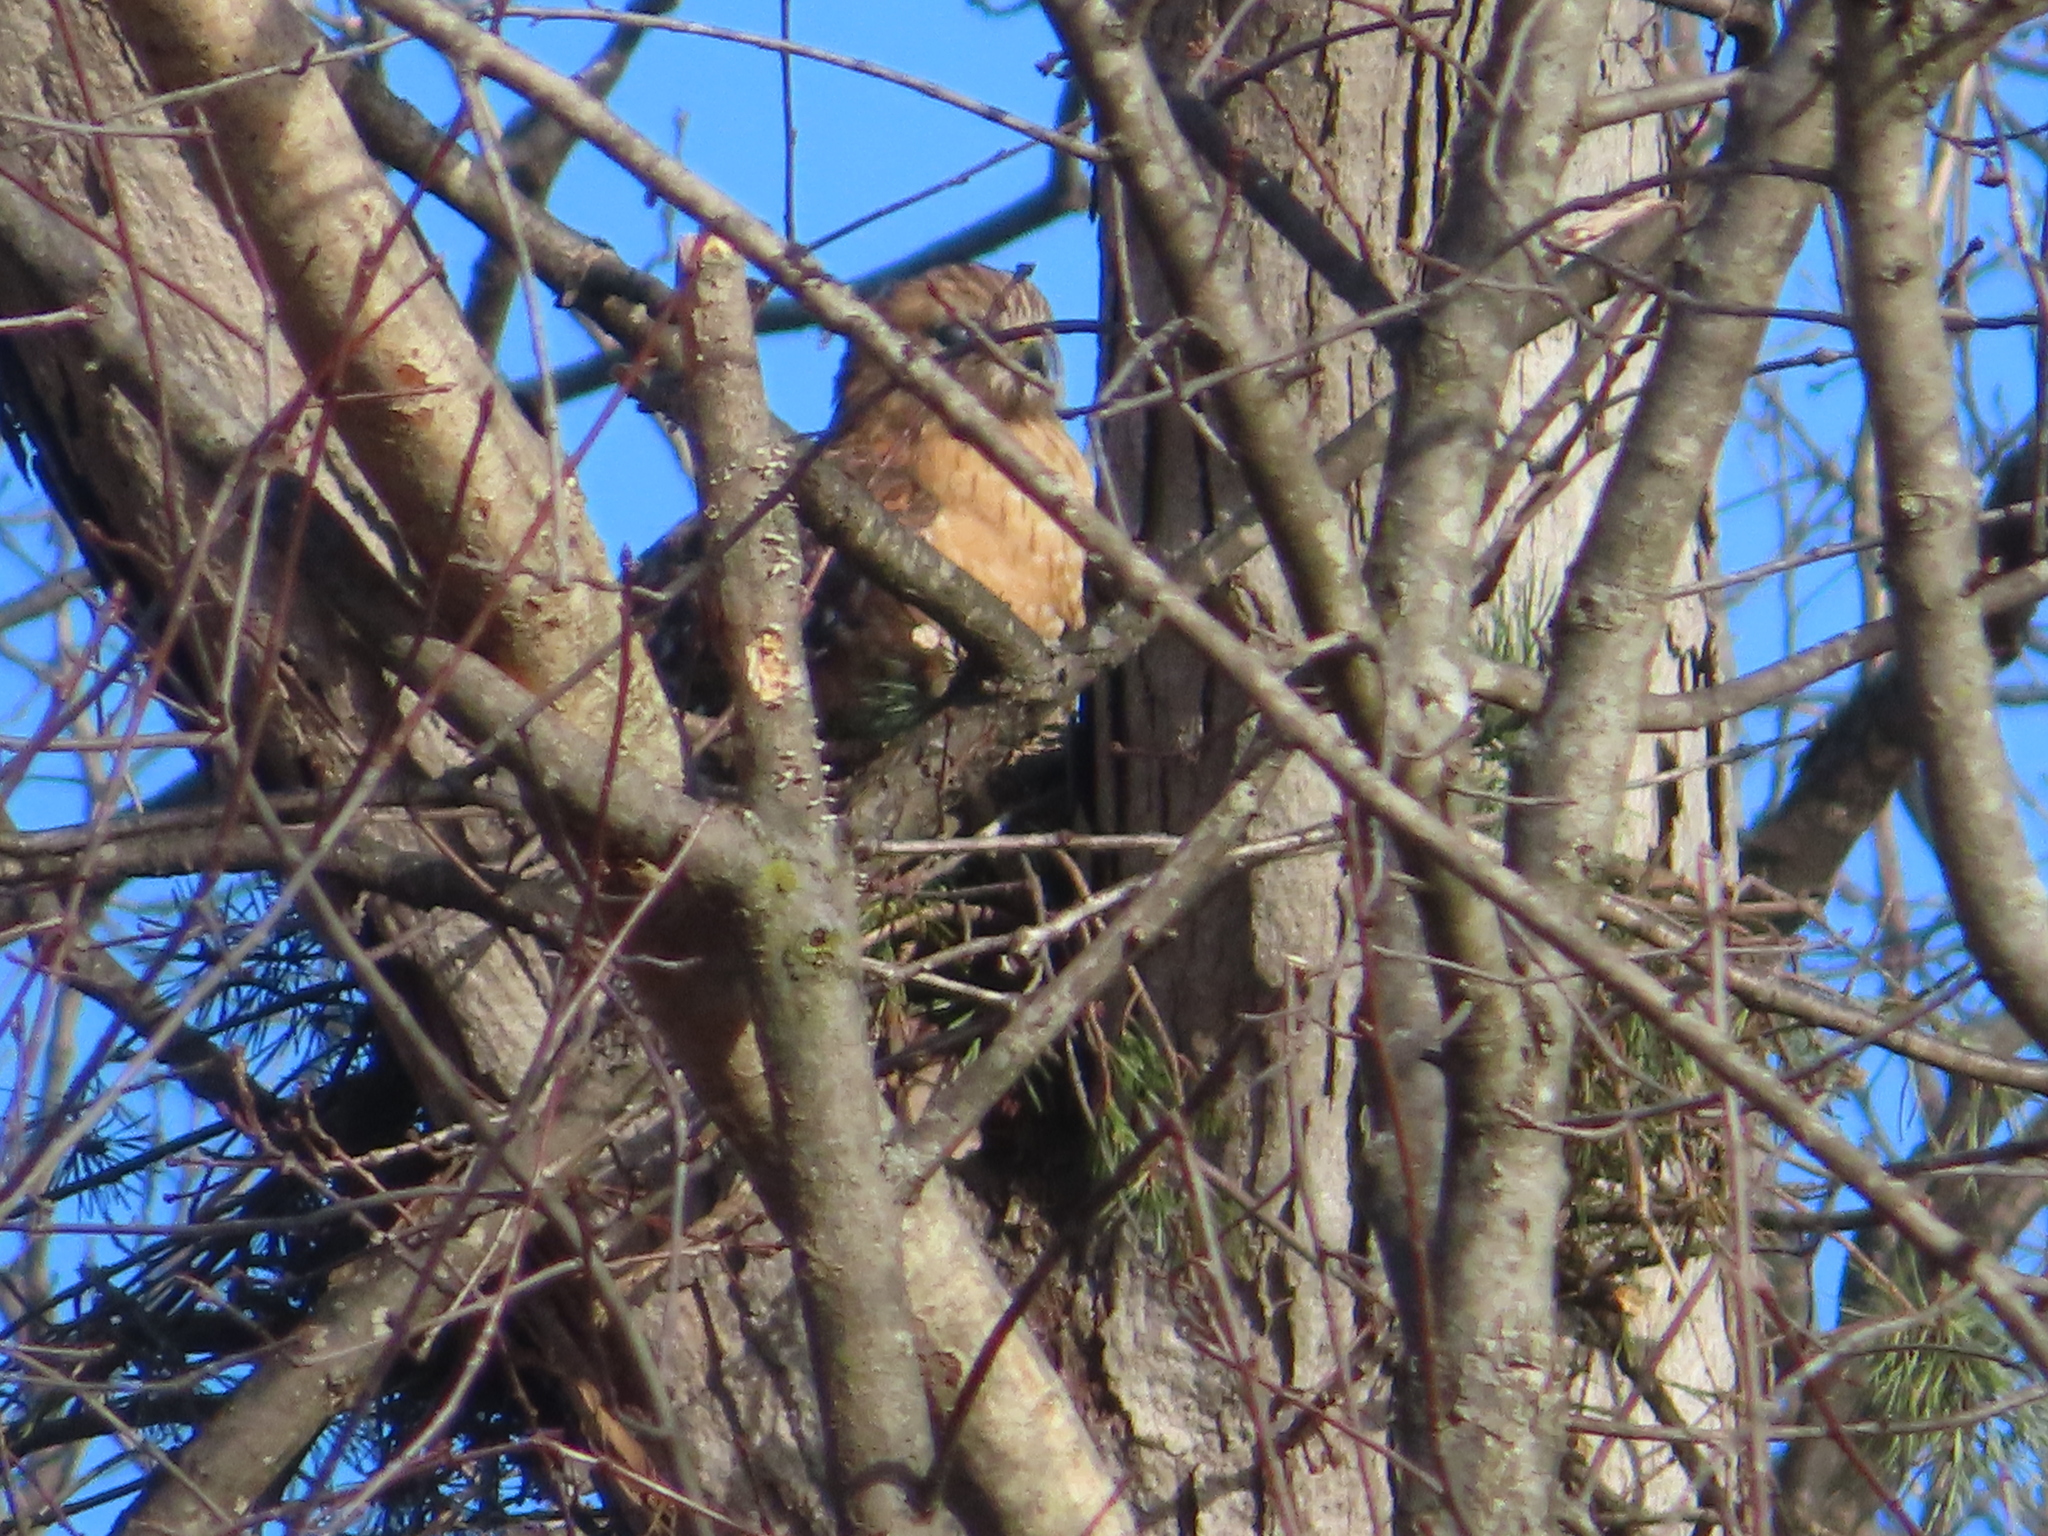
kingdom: Animalia
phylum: Chordata
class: Aves
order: Accipitriformes
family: Accipitridae
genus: Buteo
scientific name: Buteo lineatus
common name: Red-shouldered hawk
